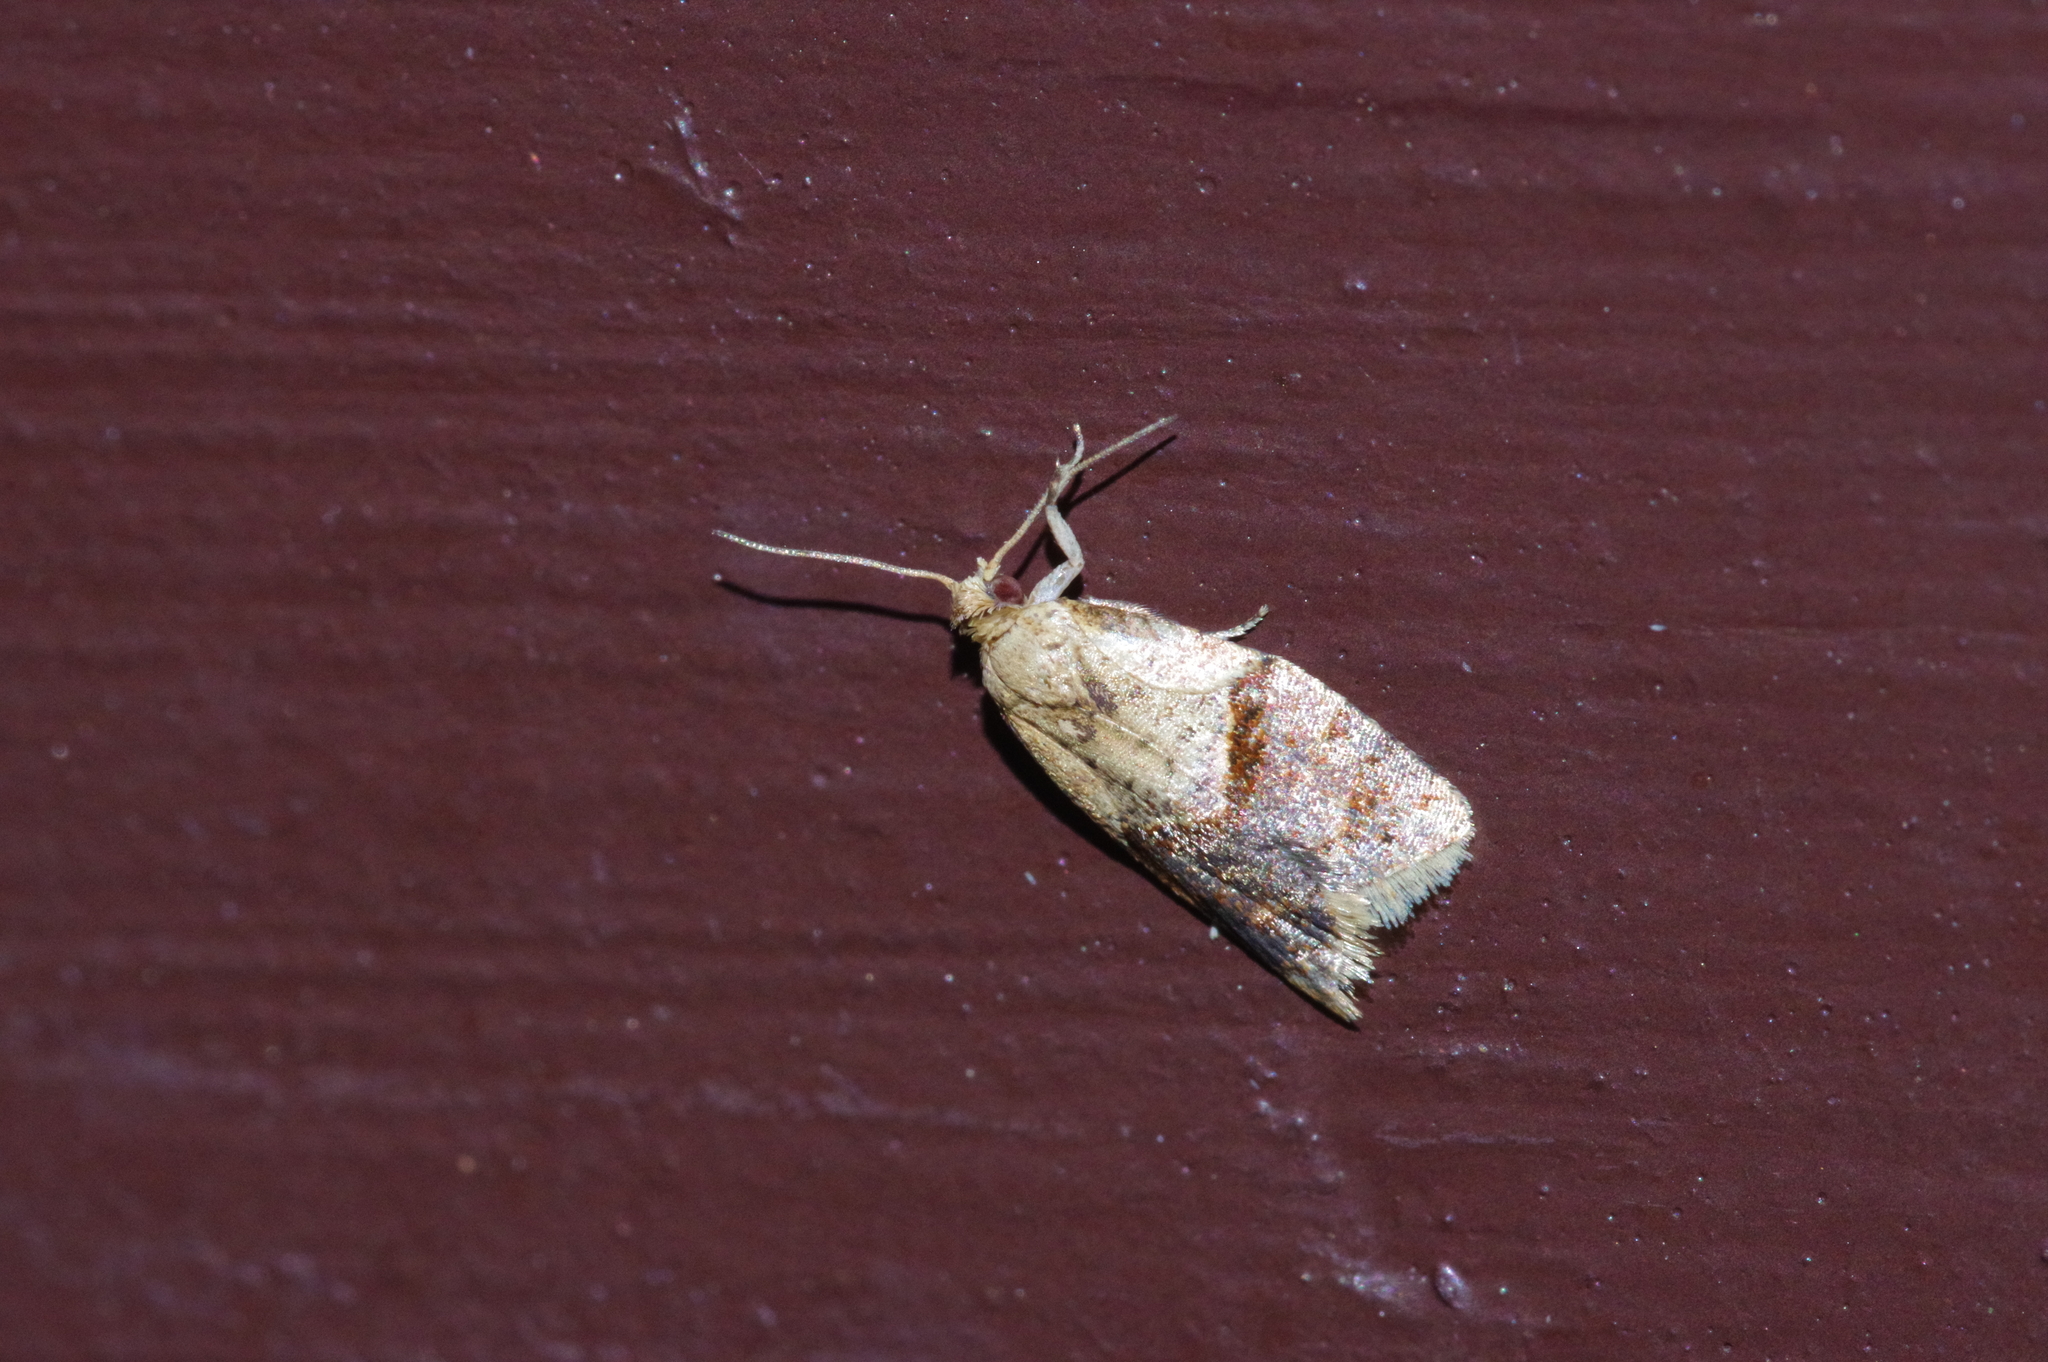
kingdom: Animalia
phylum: Arthropoda
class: Insecta
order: Lepidoptera
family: Tortricidae
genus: Diplocalyptis
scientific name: Diplocalyptis congruentana
